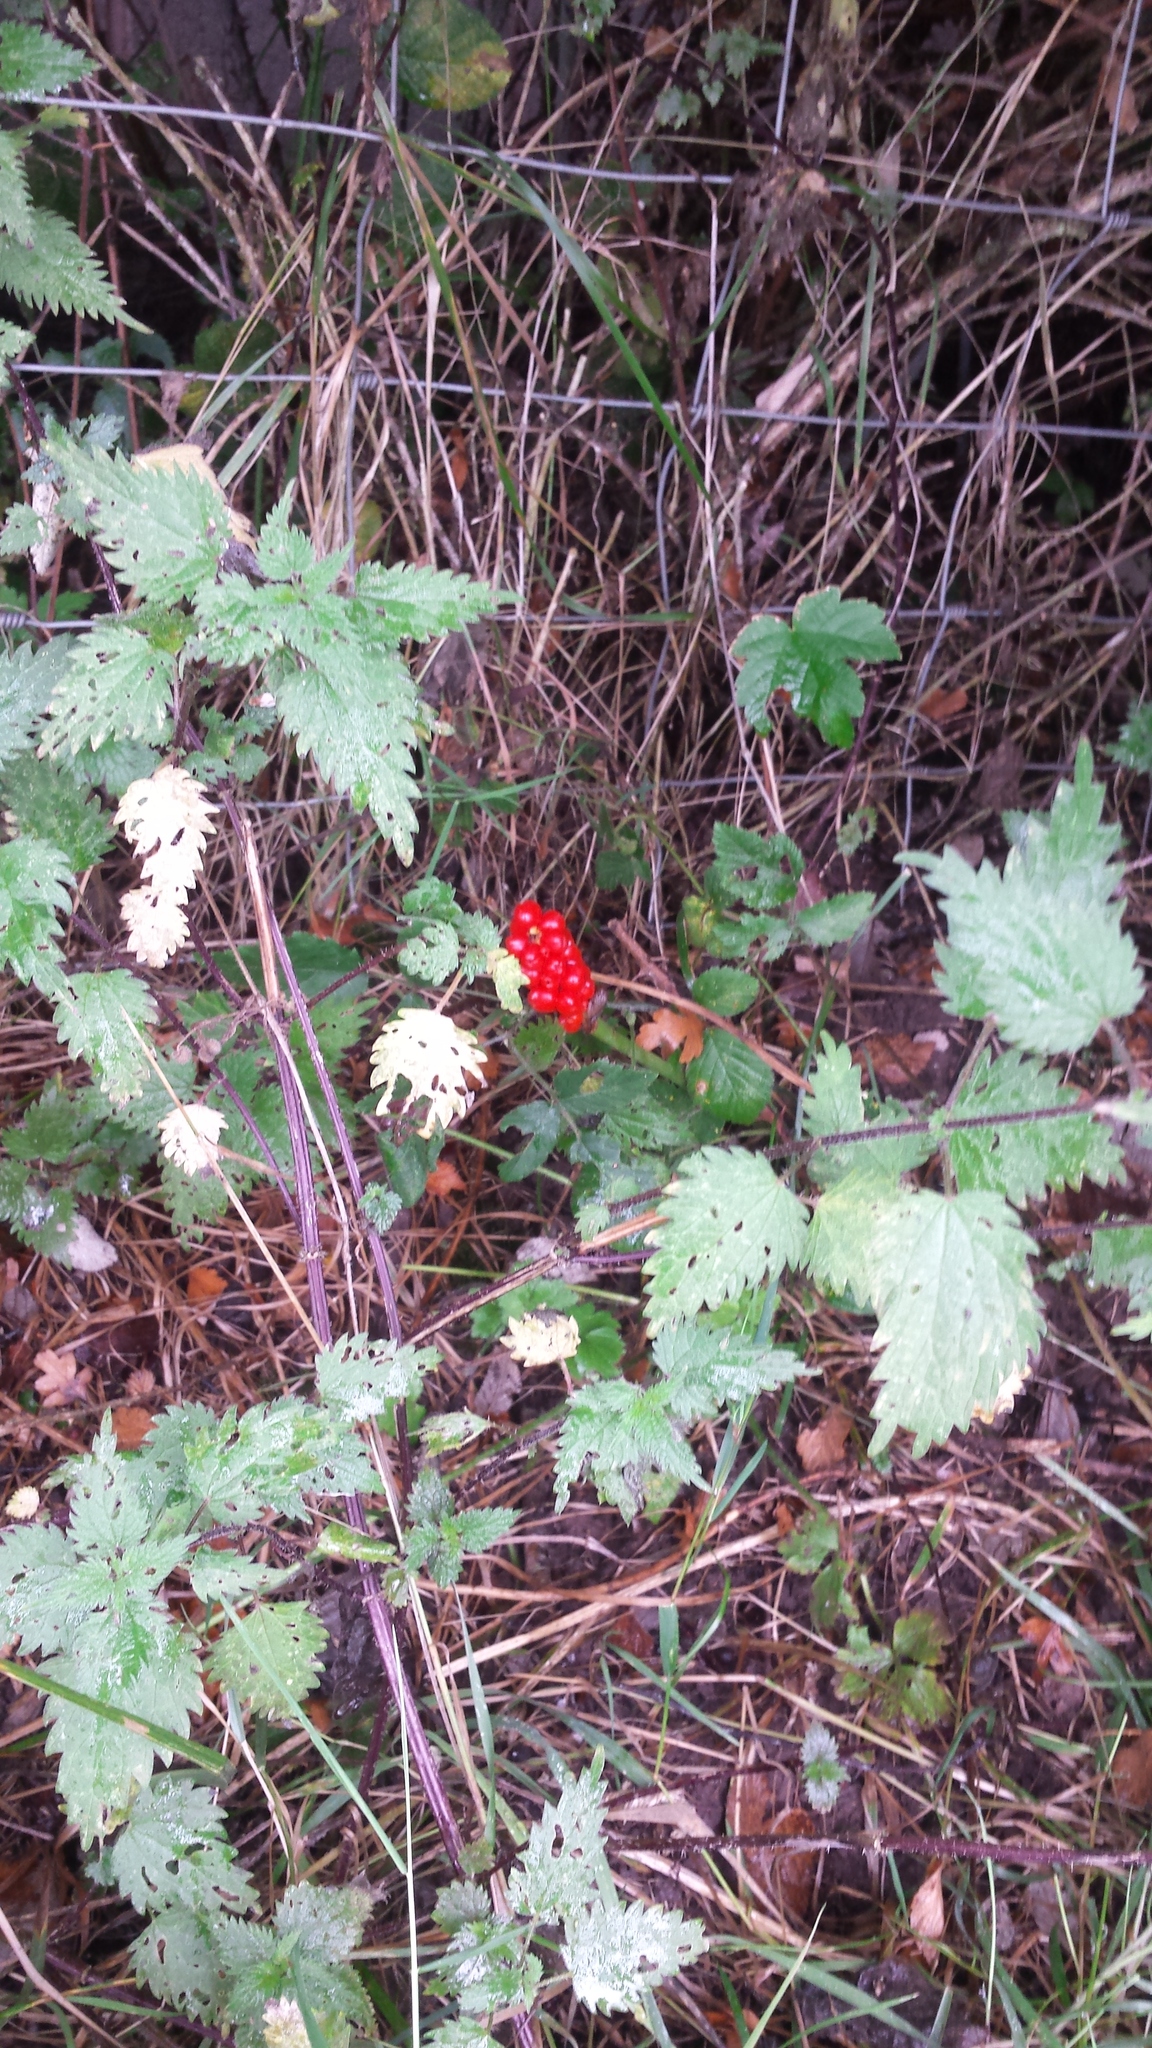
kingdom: Plantae
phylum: Tracheophyta
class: Liliopsida
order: Alismatales
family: Araceae
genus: Arum
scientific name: Arum maculatum
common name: Lords-and-ladies
